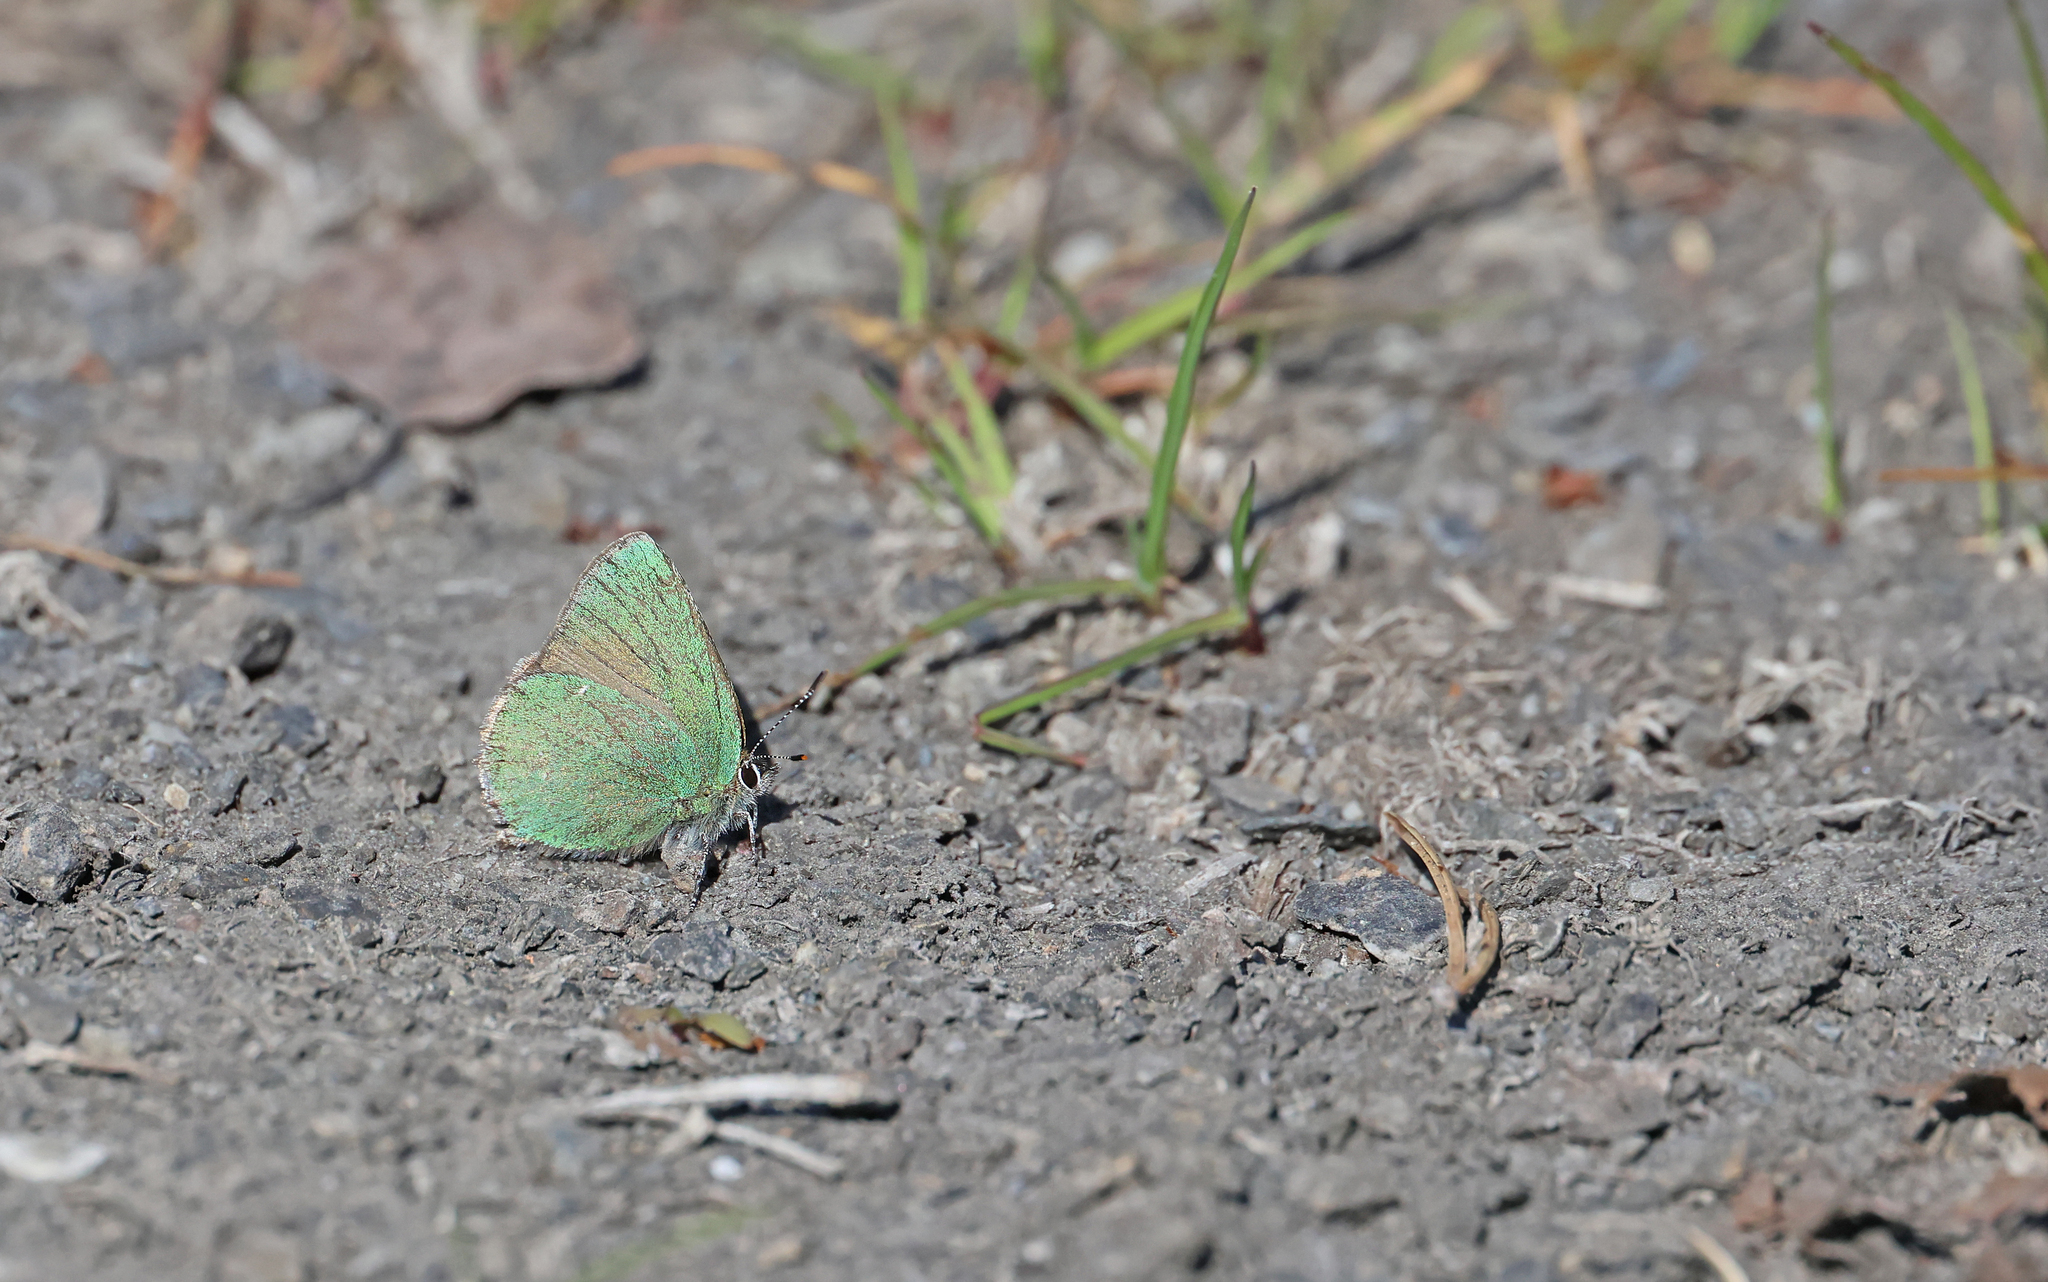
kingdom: Animalia
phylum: Arthropoda
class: Insecta
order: Lepidoptera
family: Lycaenidae
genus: Callophrys
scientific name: Callophrys rubi
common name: Green hairstreak
